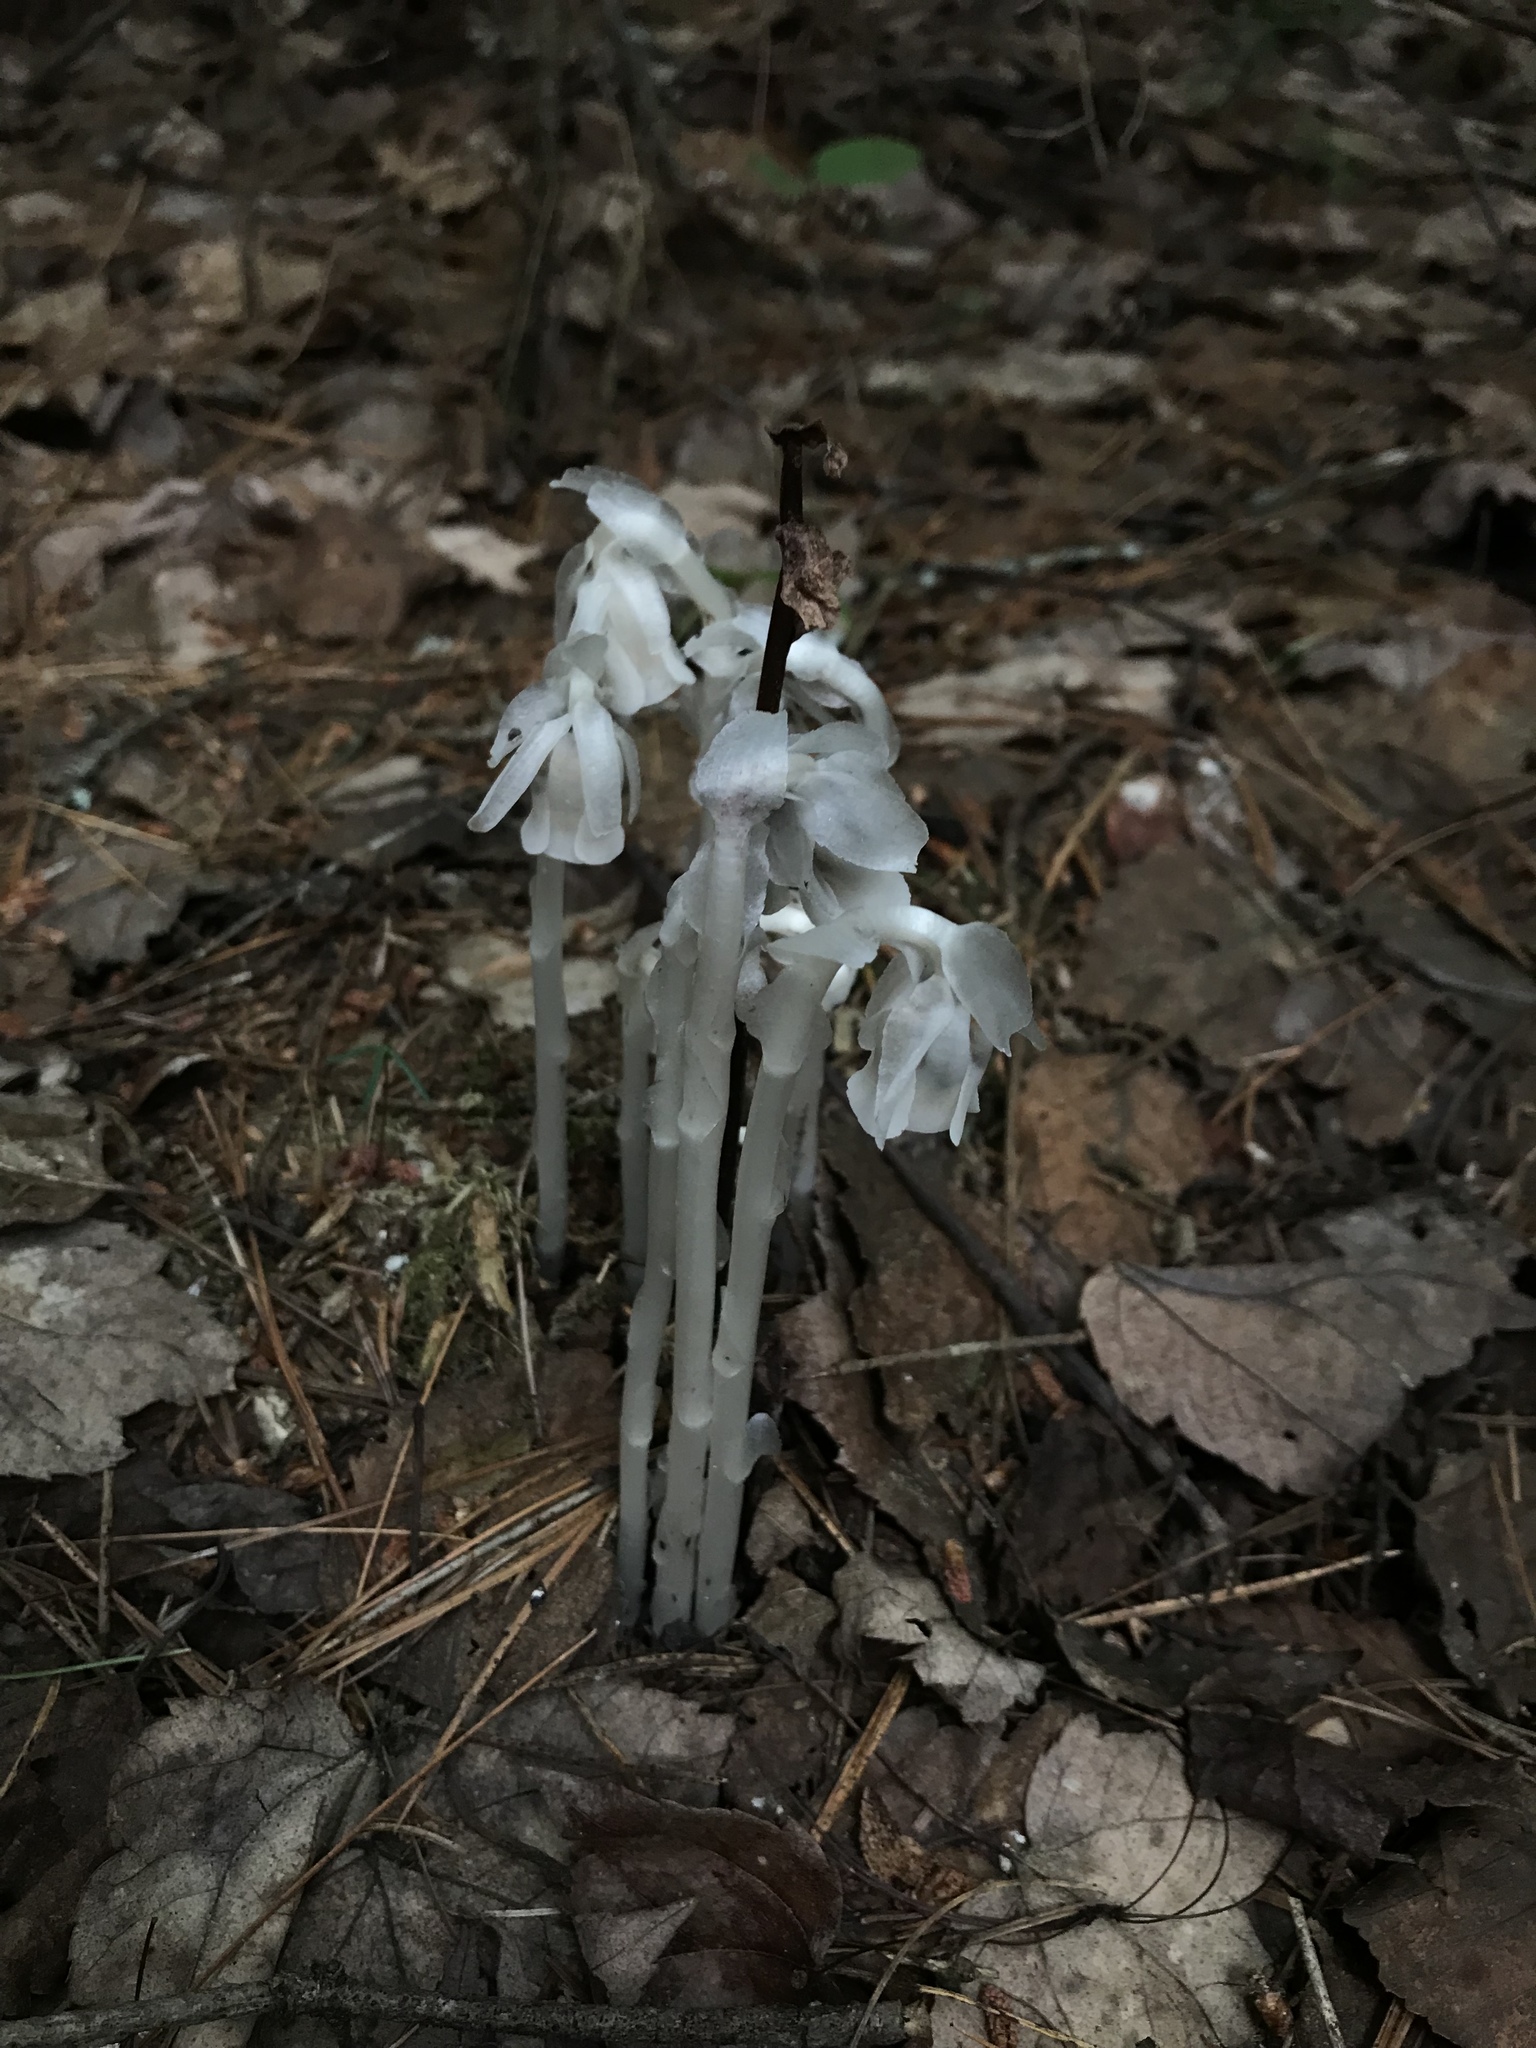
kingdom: Plantae
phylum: Tracheophyta
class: Magnoliopsida
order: Ericales
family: Ericaceae
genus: Monotropa
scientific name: Monotropa uniflora
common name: Convulsion root
